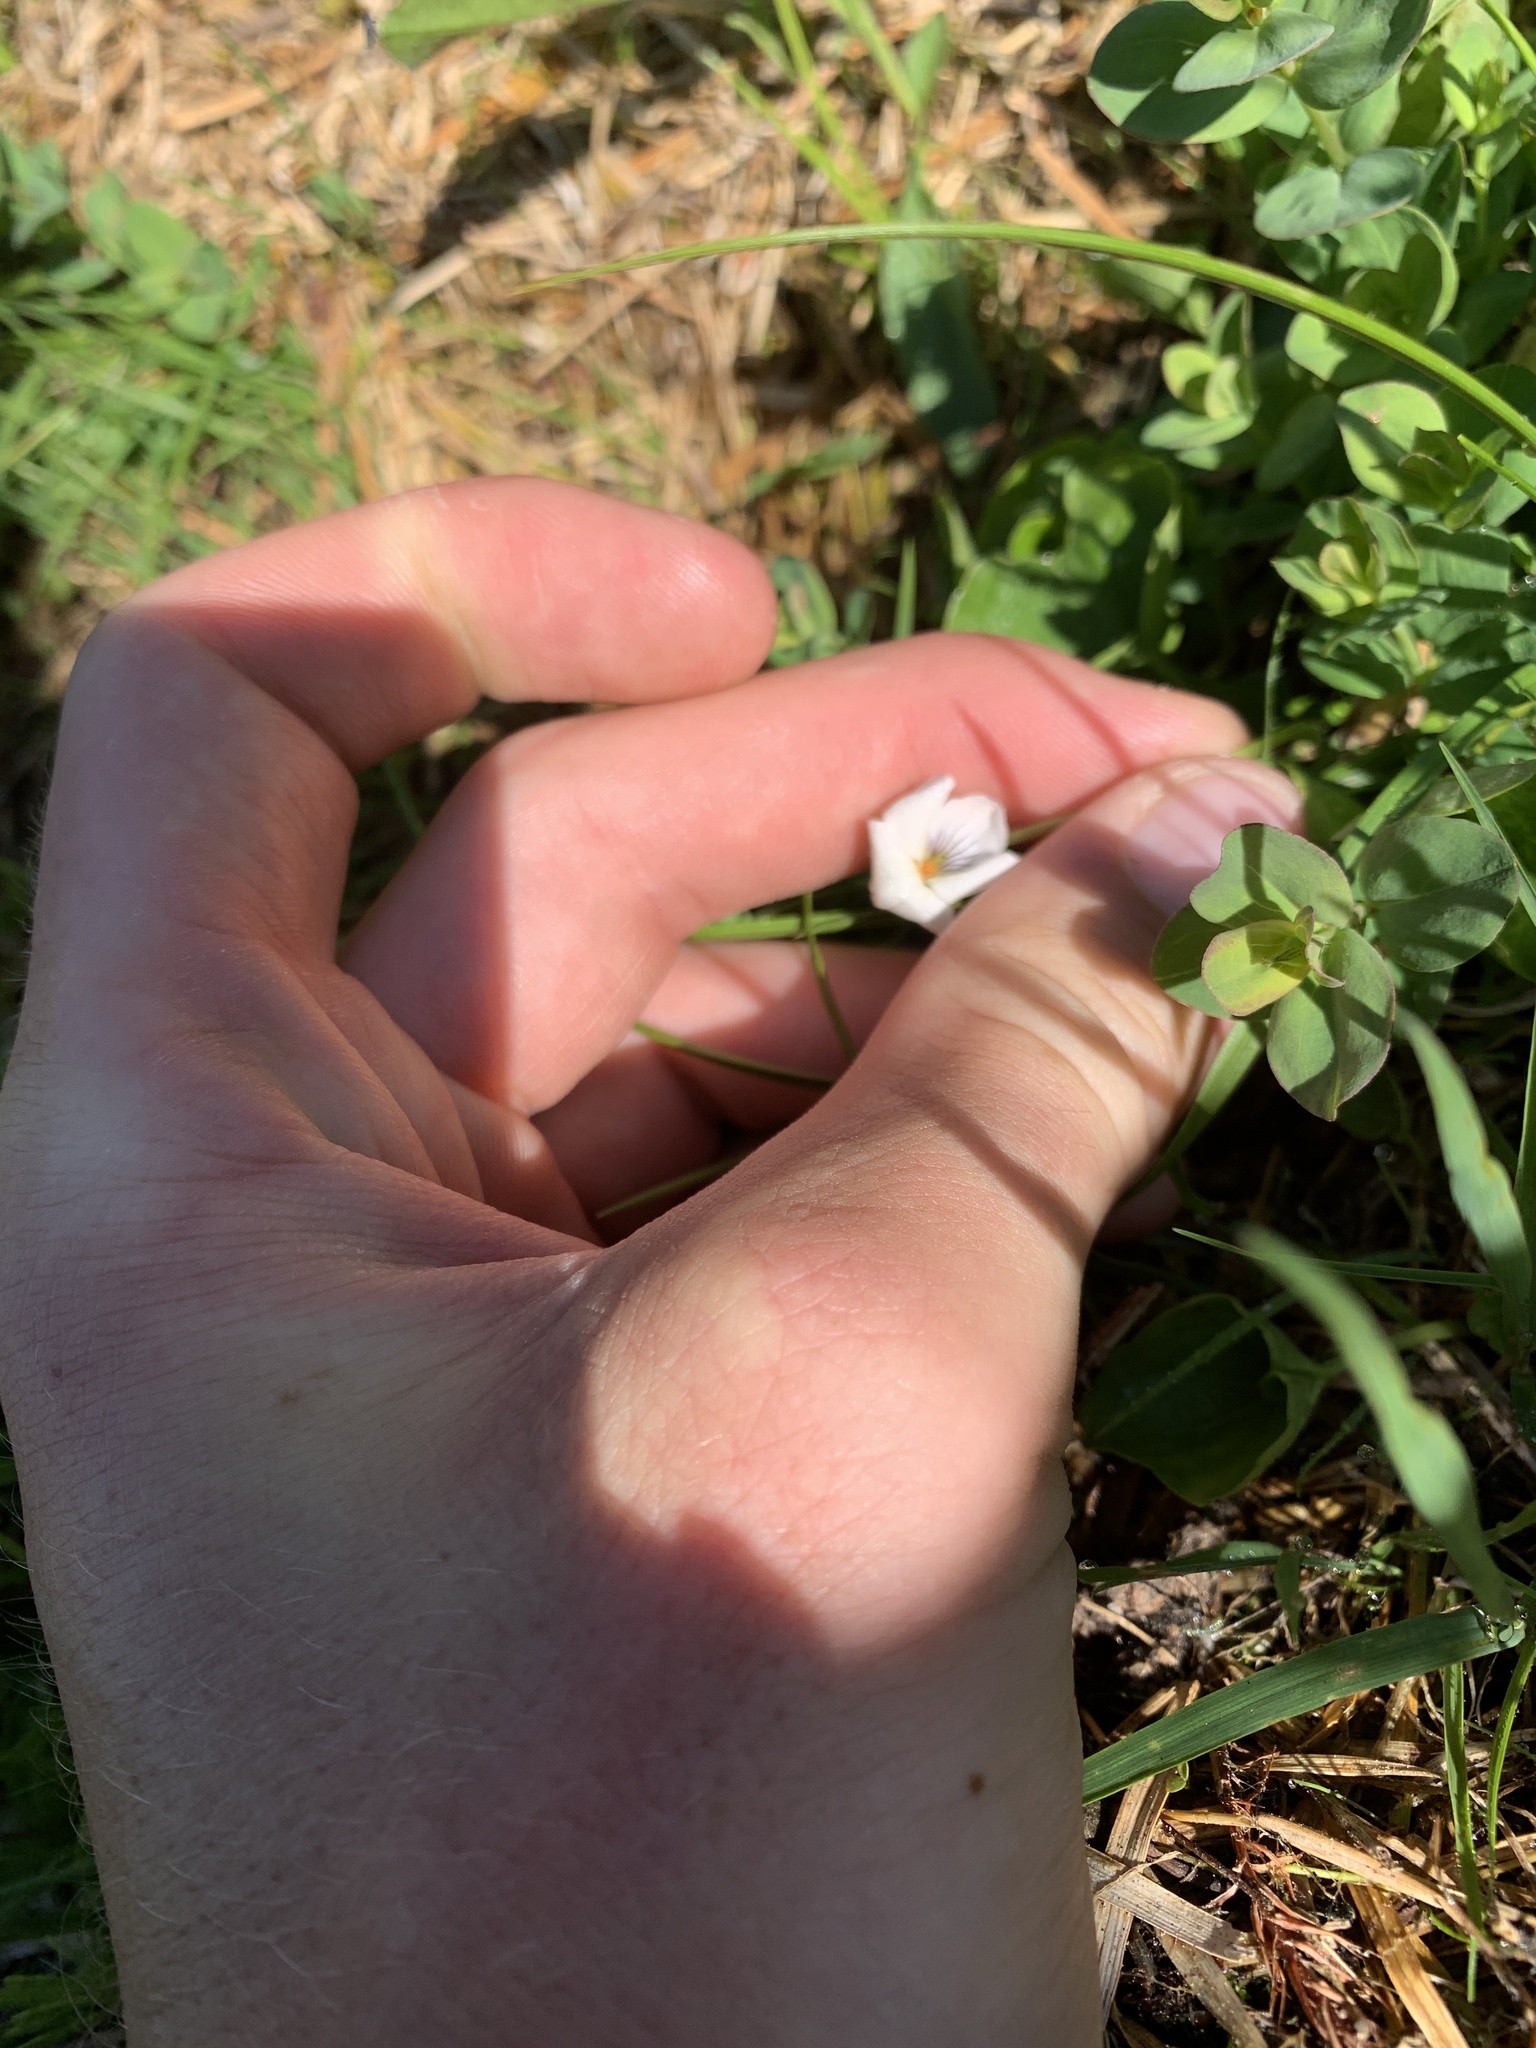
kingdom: Plantae
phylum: Tracheophyta
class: Magnoliopsida
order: Malpighiales
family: Violaceae
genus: Viola
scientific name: Viola minuscula
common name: Northern white violet
